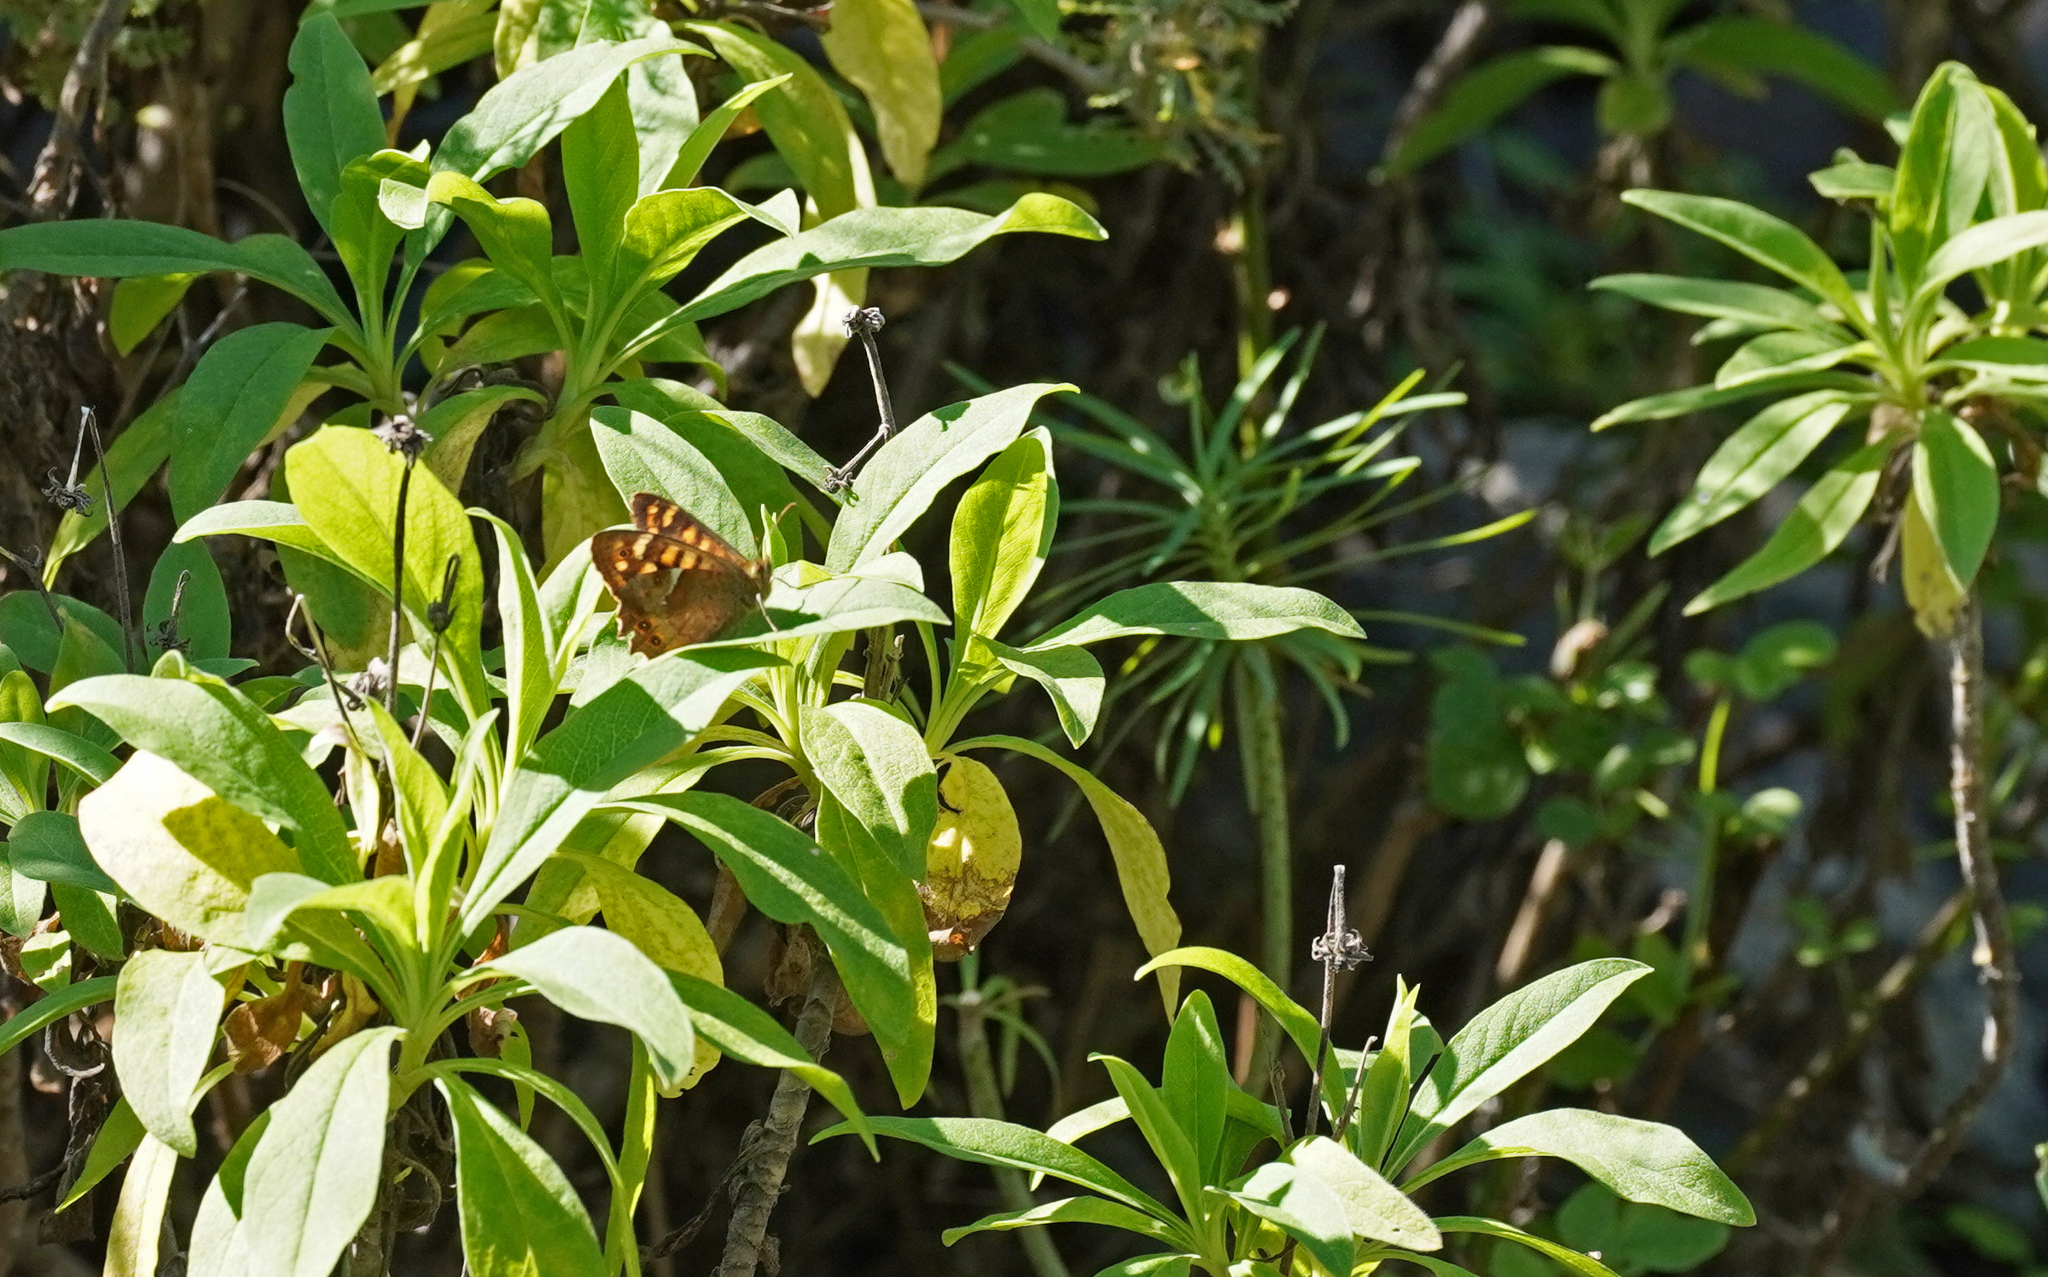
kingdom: Animalia
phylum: Arthropoda
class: Insecta
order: Lepidoptera
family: Nymphalidae
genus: Pararge
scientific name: Pararge aegeria
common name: Speckled wood
